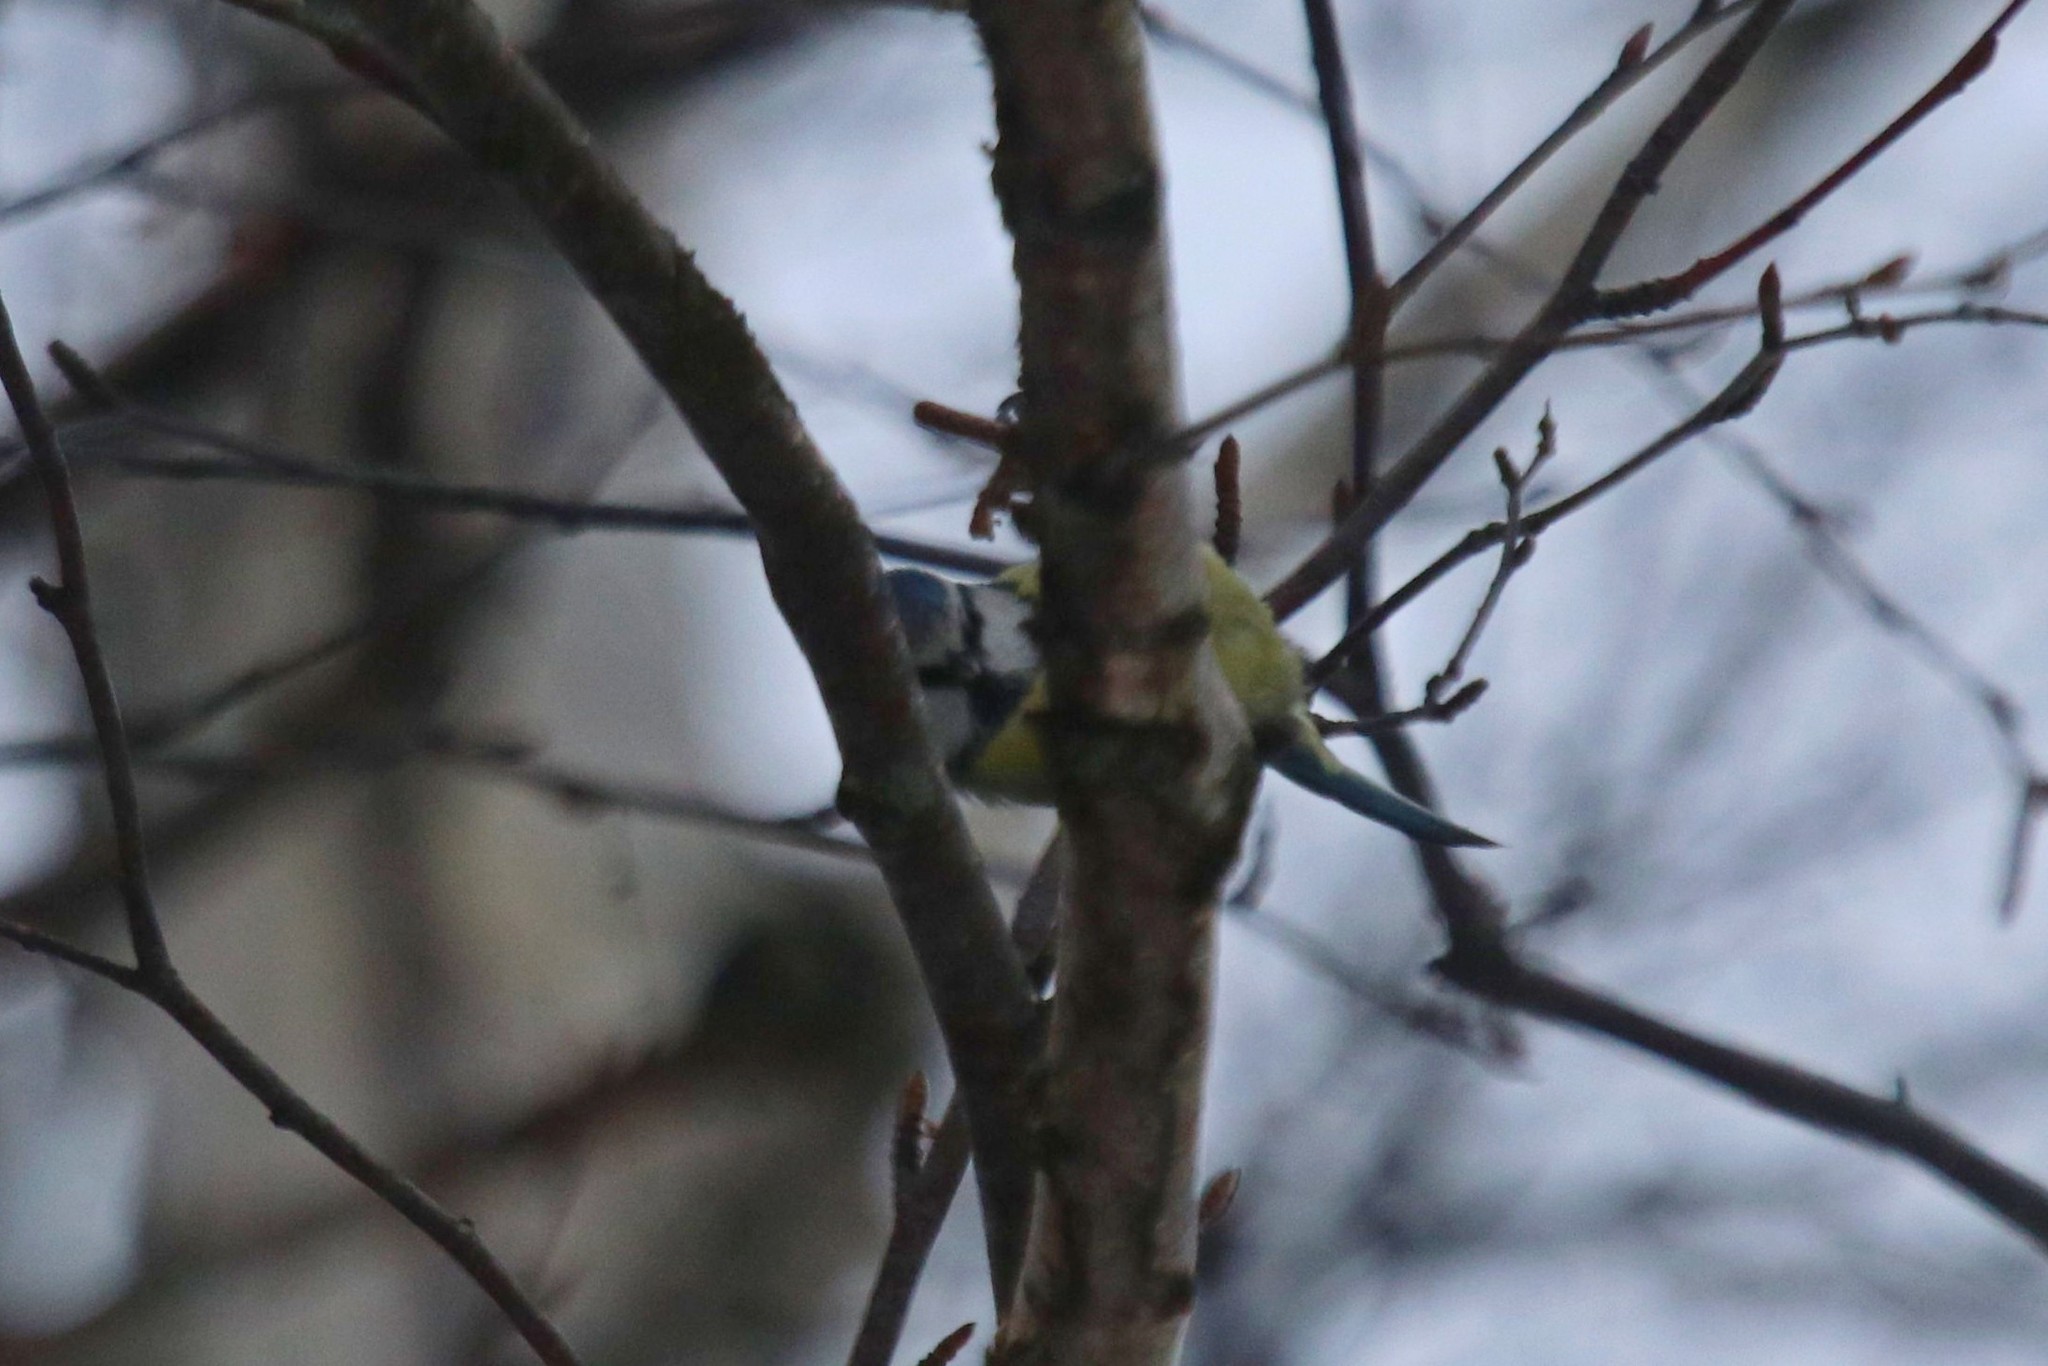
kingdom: Animalia
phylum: Chordata
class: Aves
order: Passeriformes
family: Paridae
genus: Cyanistes
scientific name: Cyanistes caeruleus
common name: Eurasian blue tit
